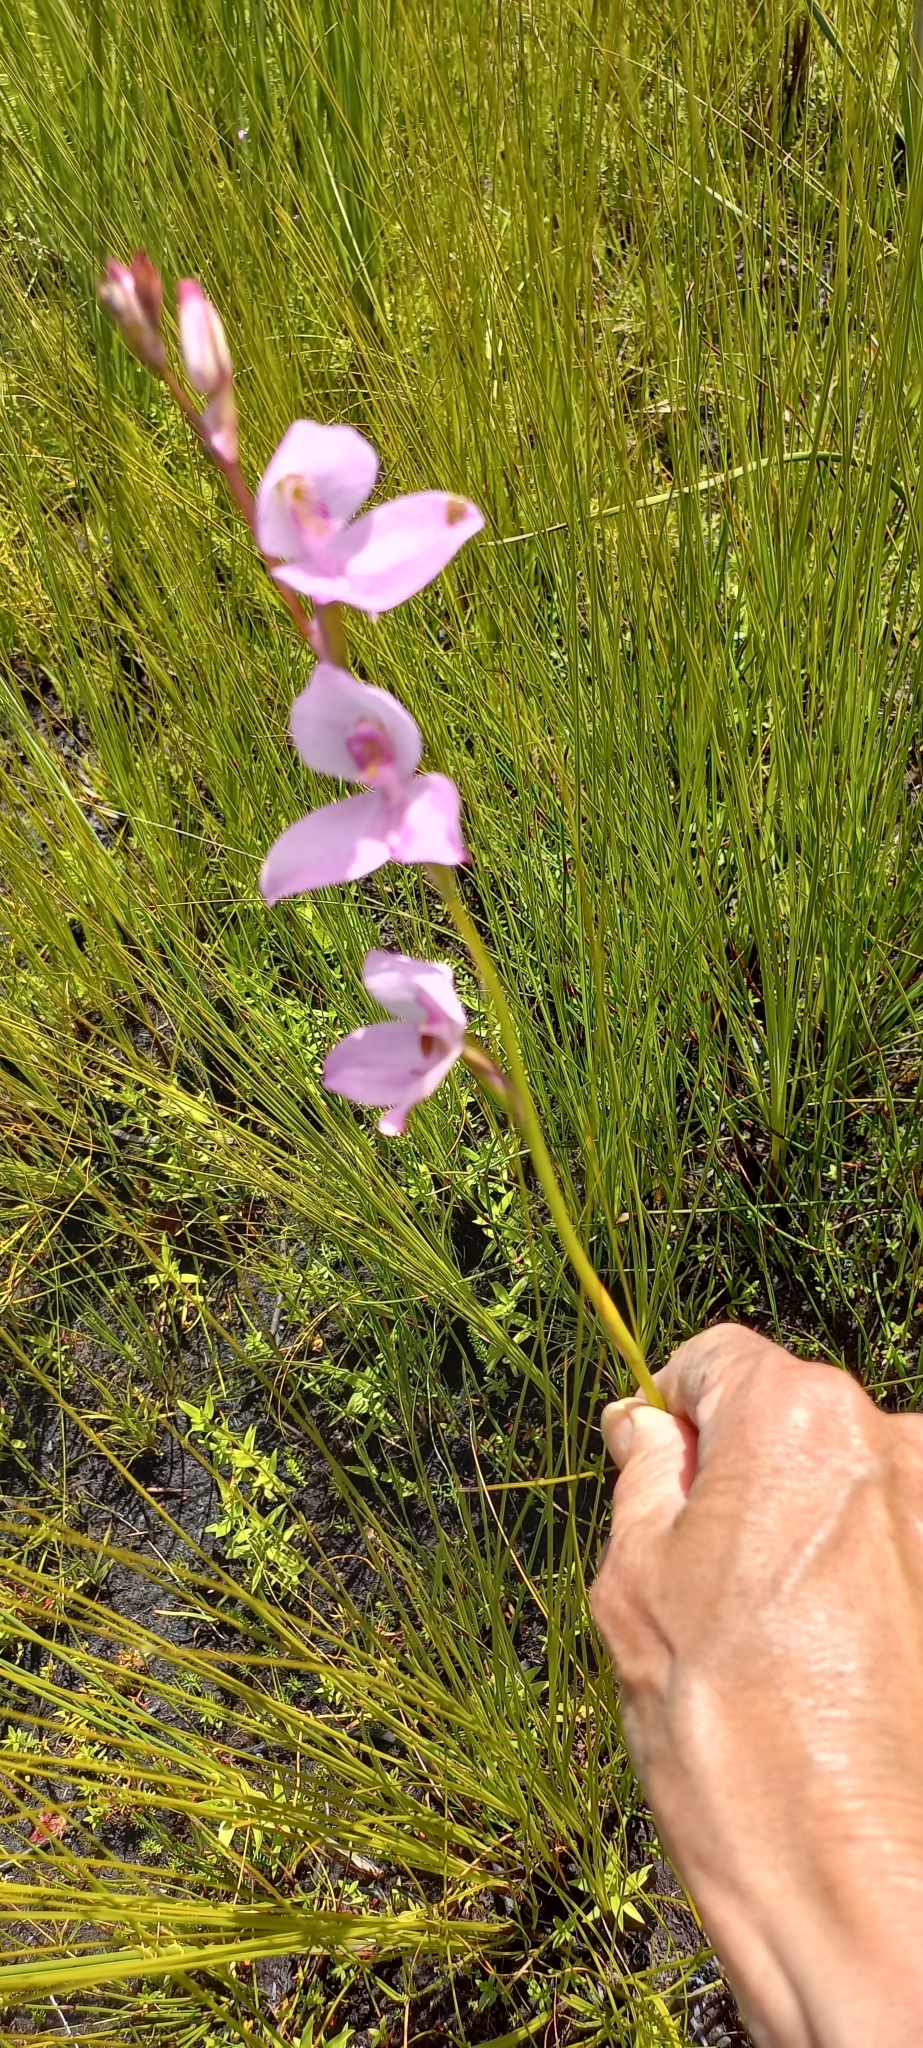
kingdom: Plantae
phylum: Tracheophyta
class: Liliopsida
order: Asparagales
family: Orchidaceae
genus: Disa
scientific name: Disa racemosa
